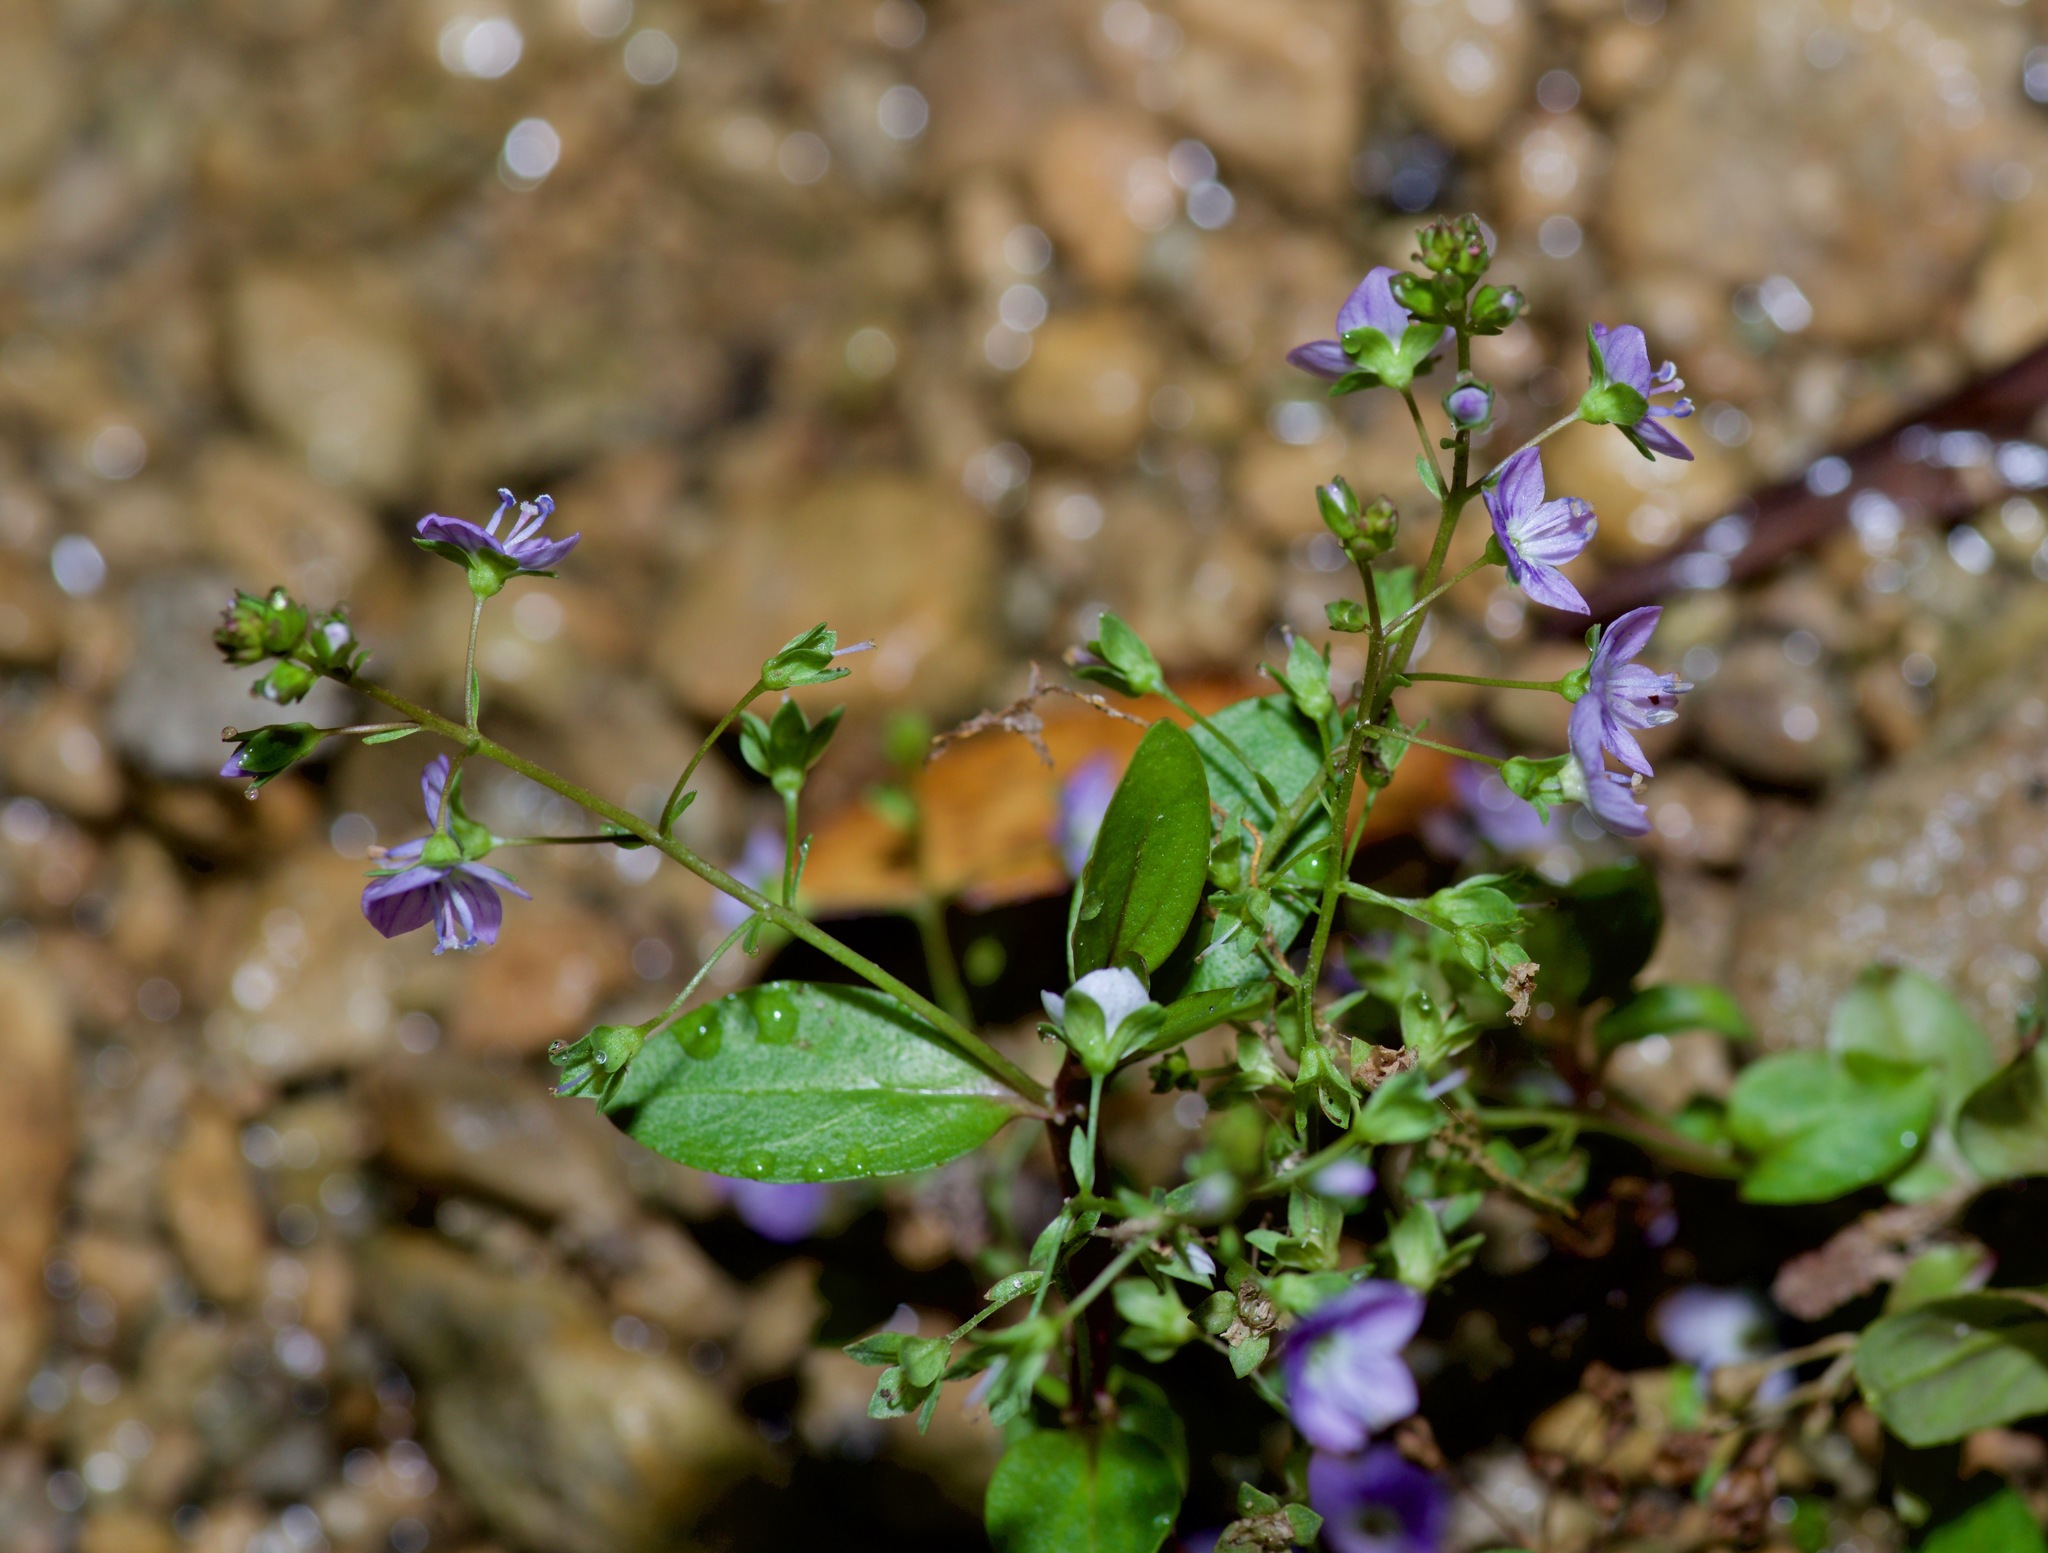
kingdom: Plantae
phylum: Tracheophyta
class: Magnoliopsida
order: Lamiales
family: Plantaginaceae
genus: Veronica
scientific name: Veronica anagallis-aquatica
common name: Water speedwell
